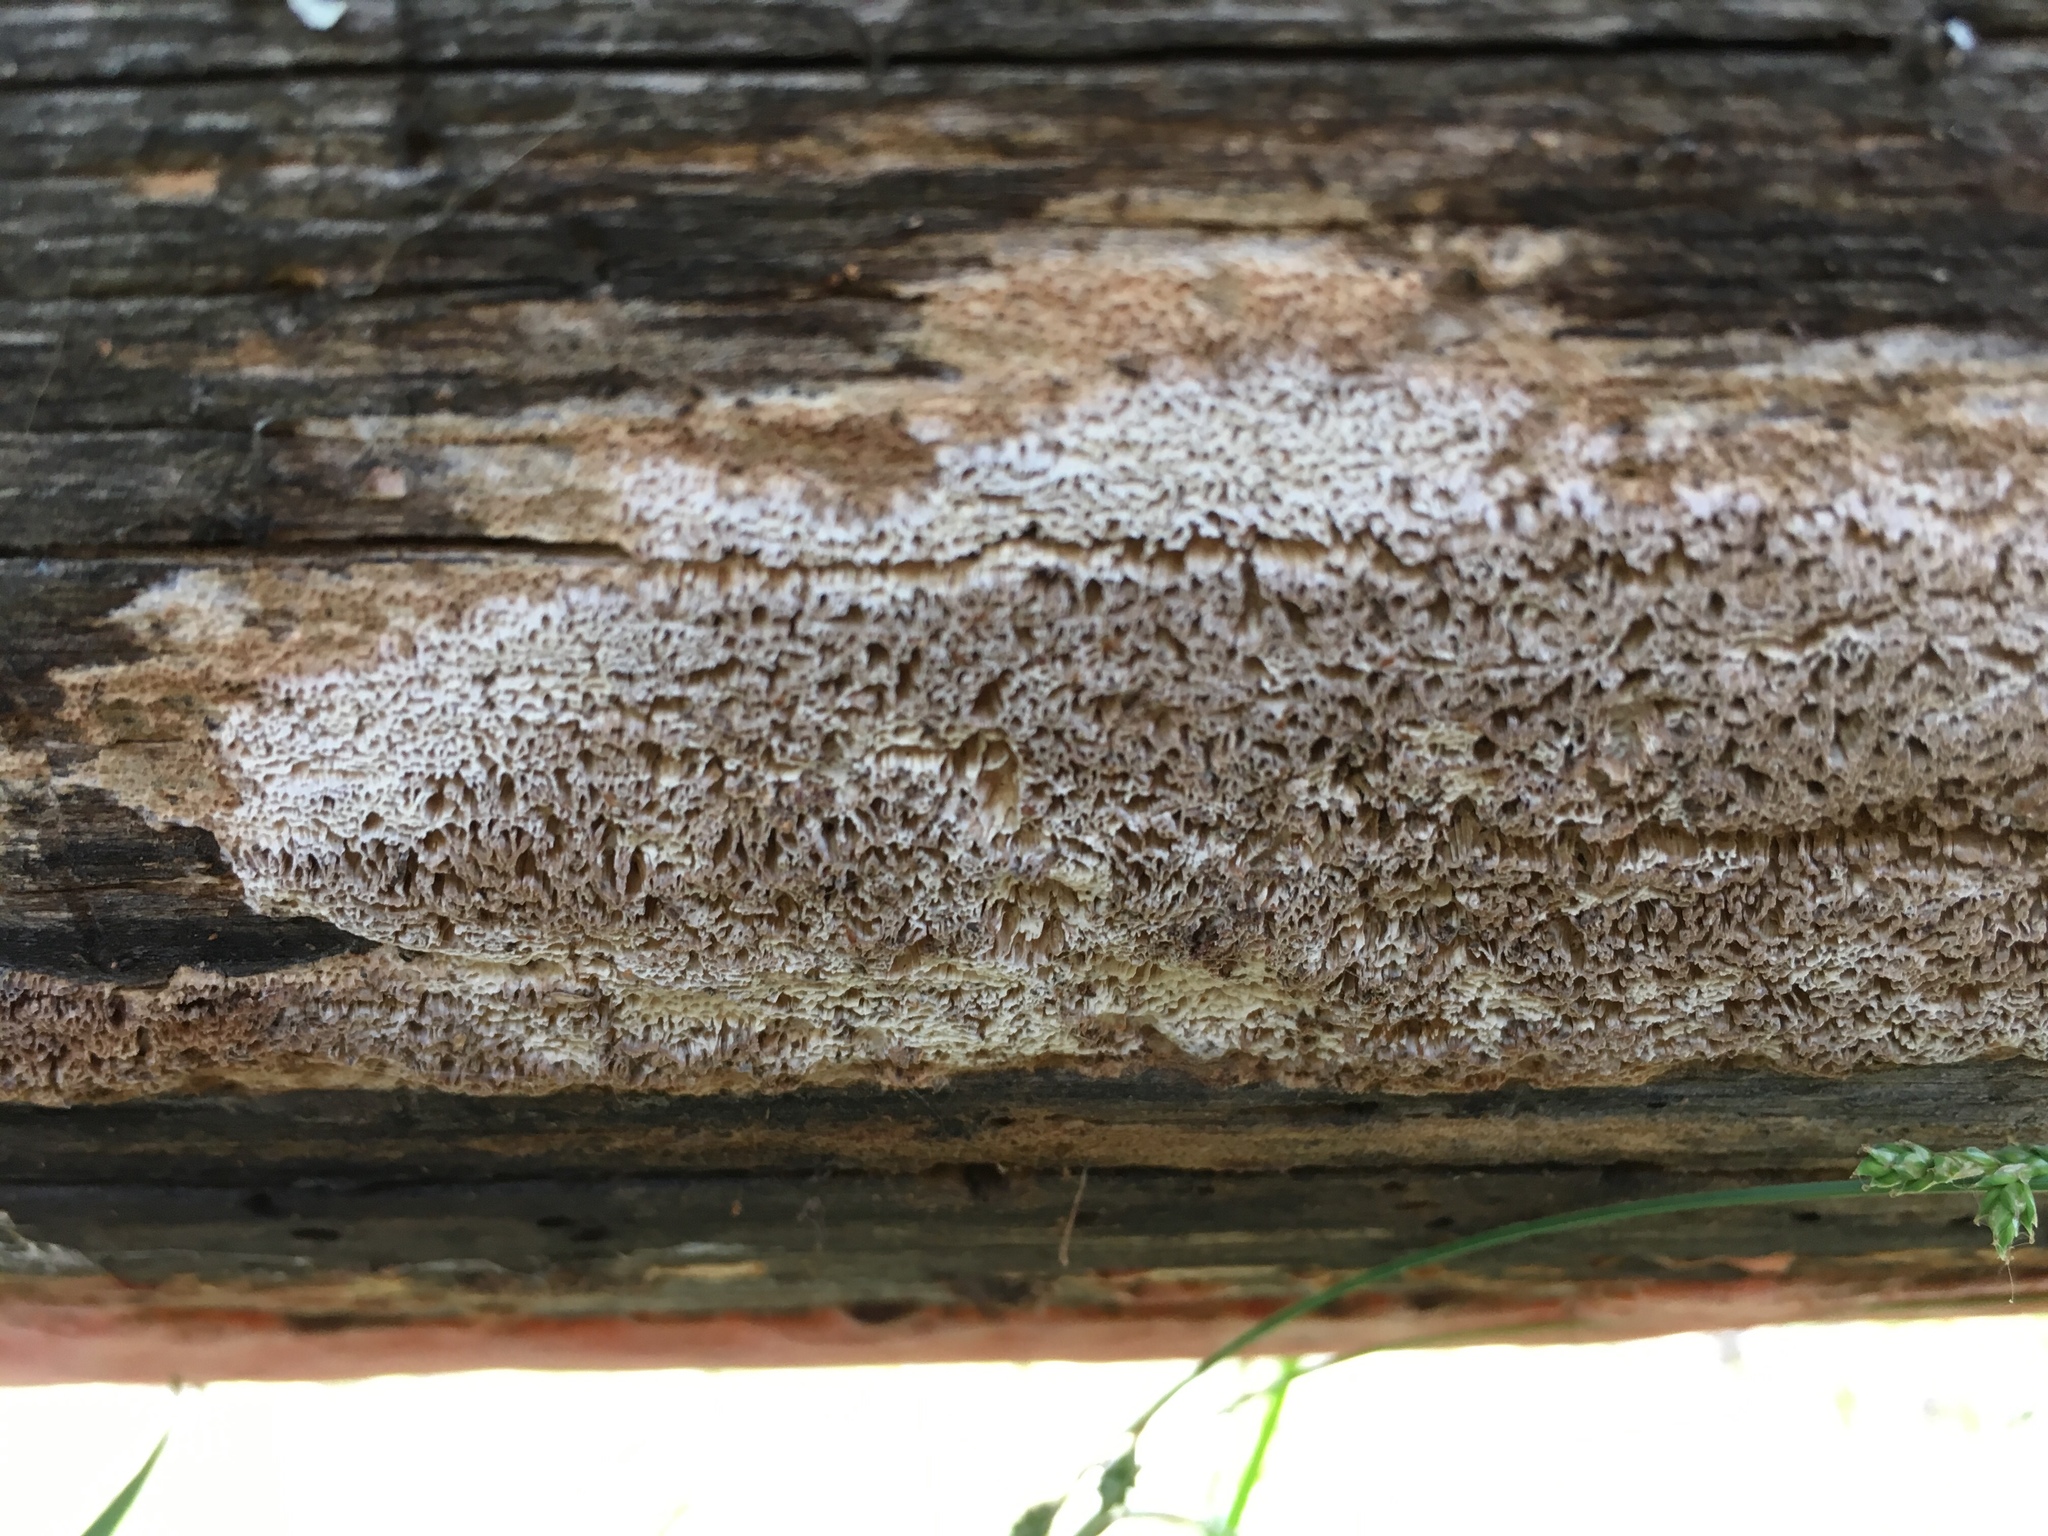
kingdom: Fungi
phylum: Basidiomycota
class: Agaricomycetes
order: Polyporales
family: Fomitopsidaceae
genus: Antrodia
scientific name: Antrodia sinuosa
